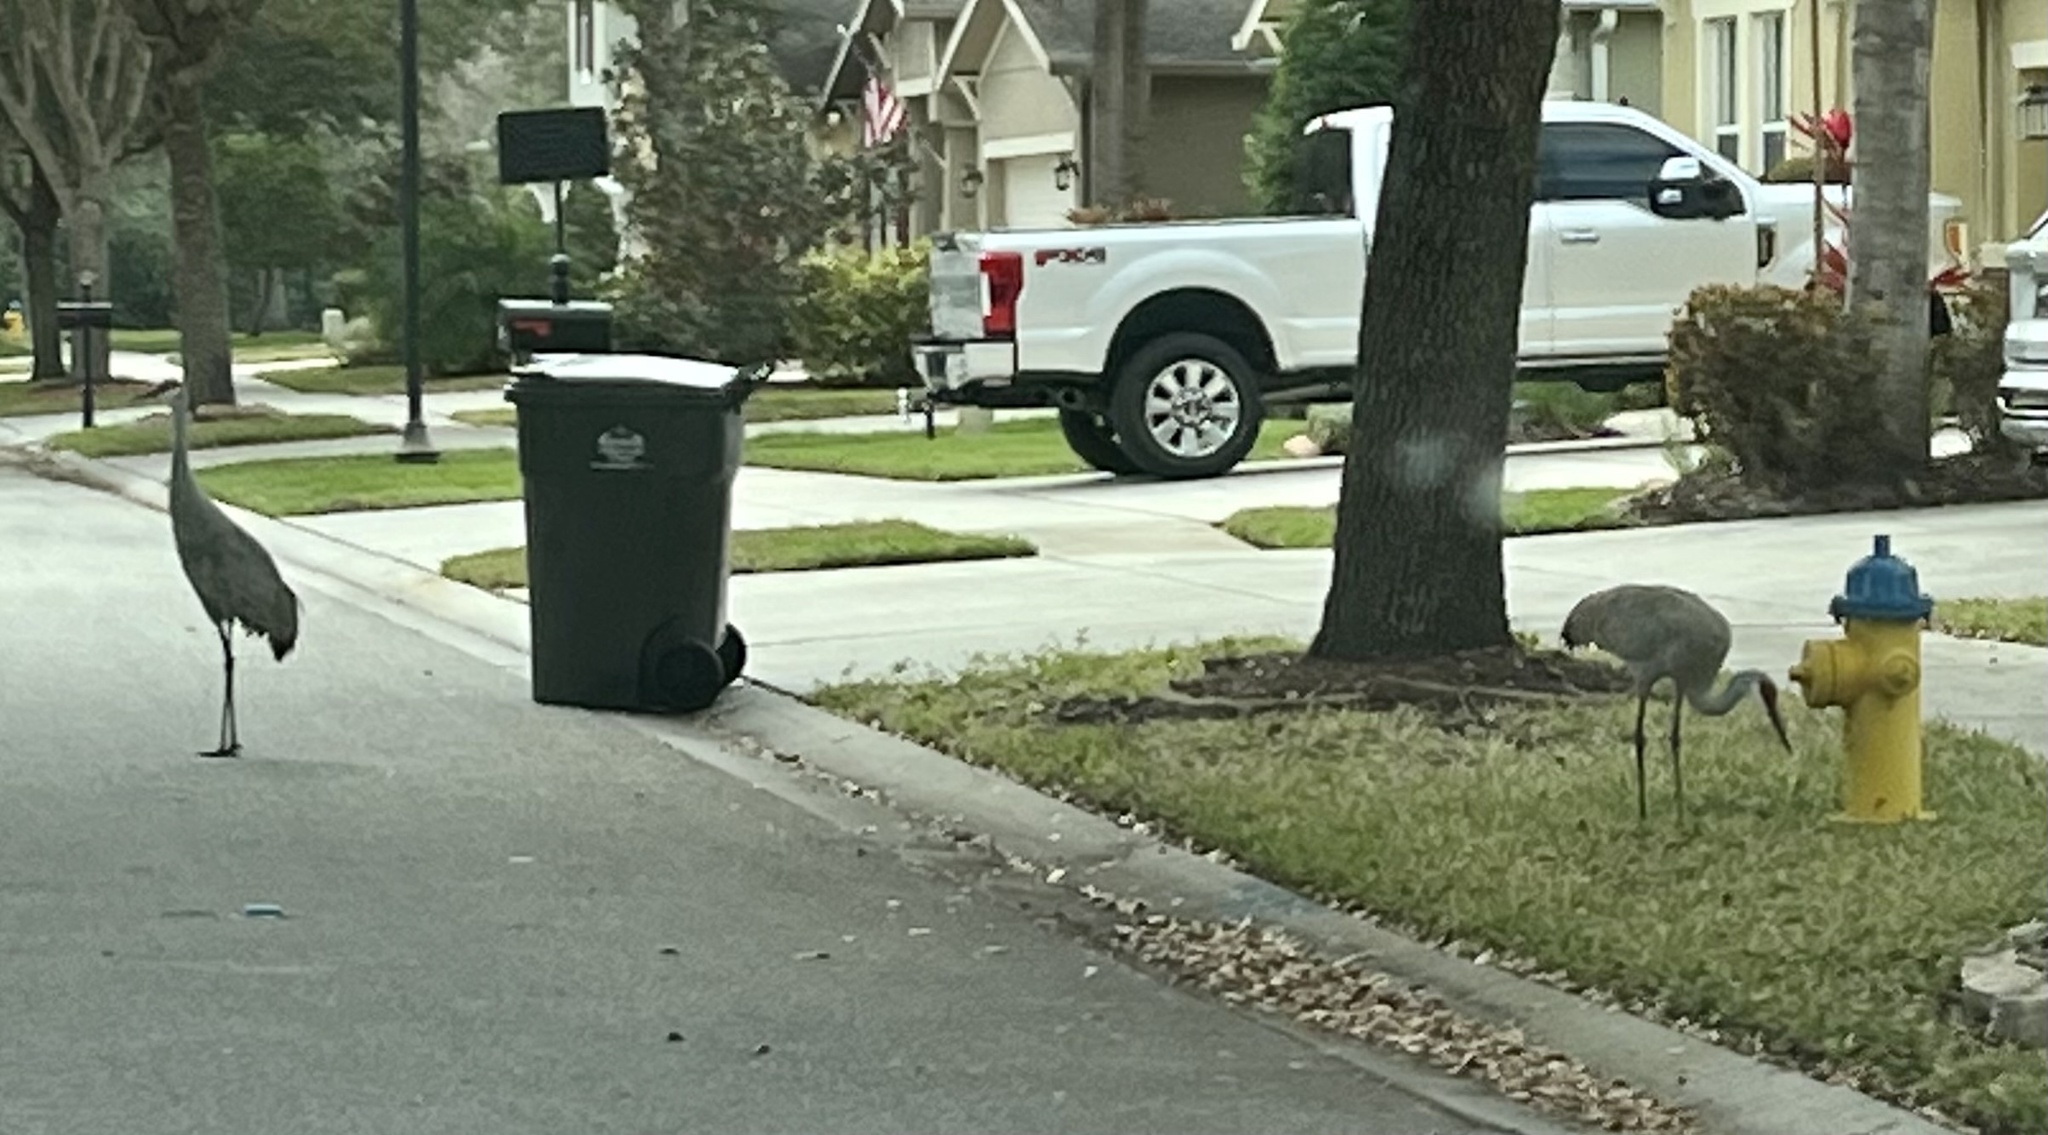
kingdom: Animalia
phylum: Chordata
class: Aves
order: Gruiformes
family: Gruidae
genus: Grus
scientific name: Grus canadensis
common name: Sandhill crane
